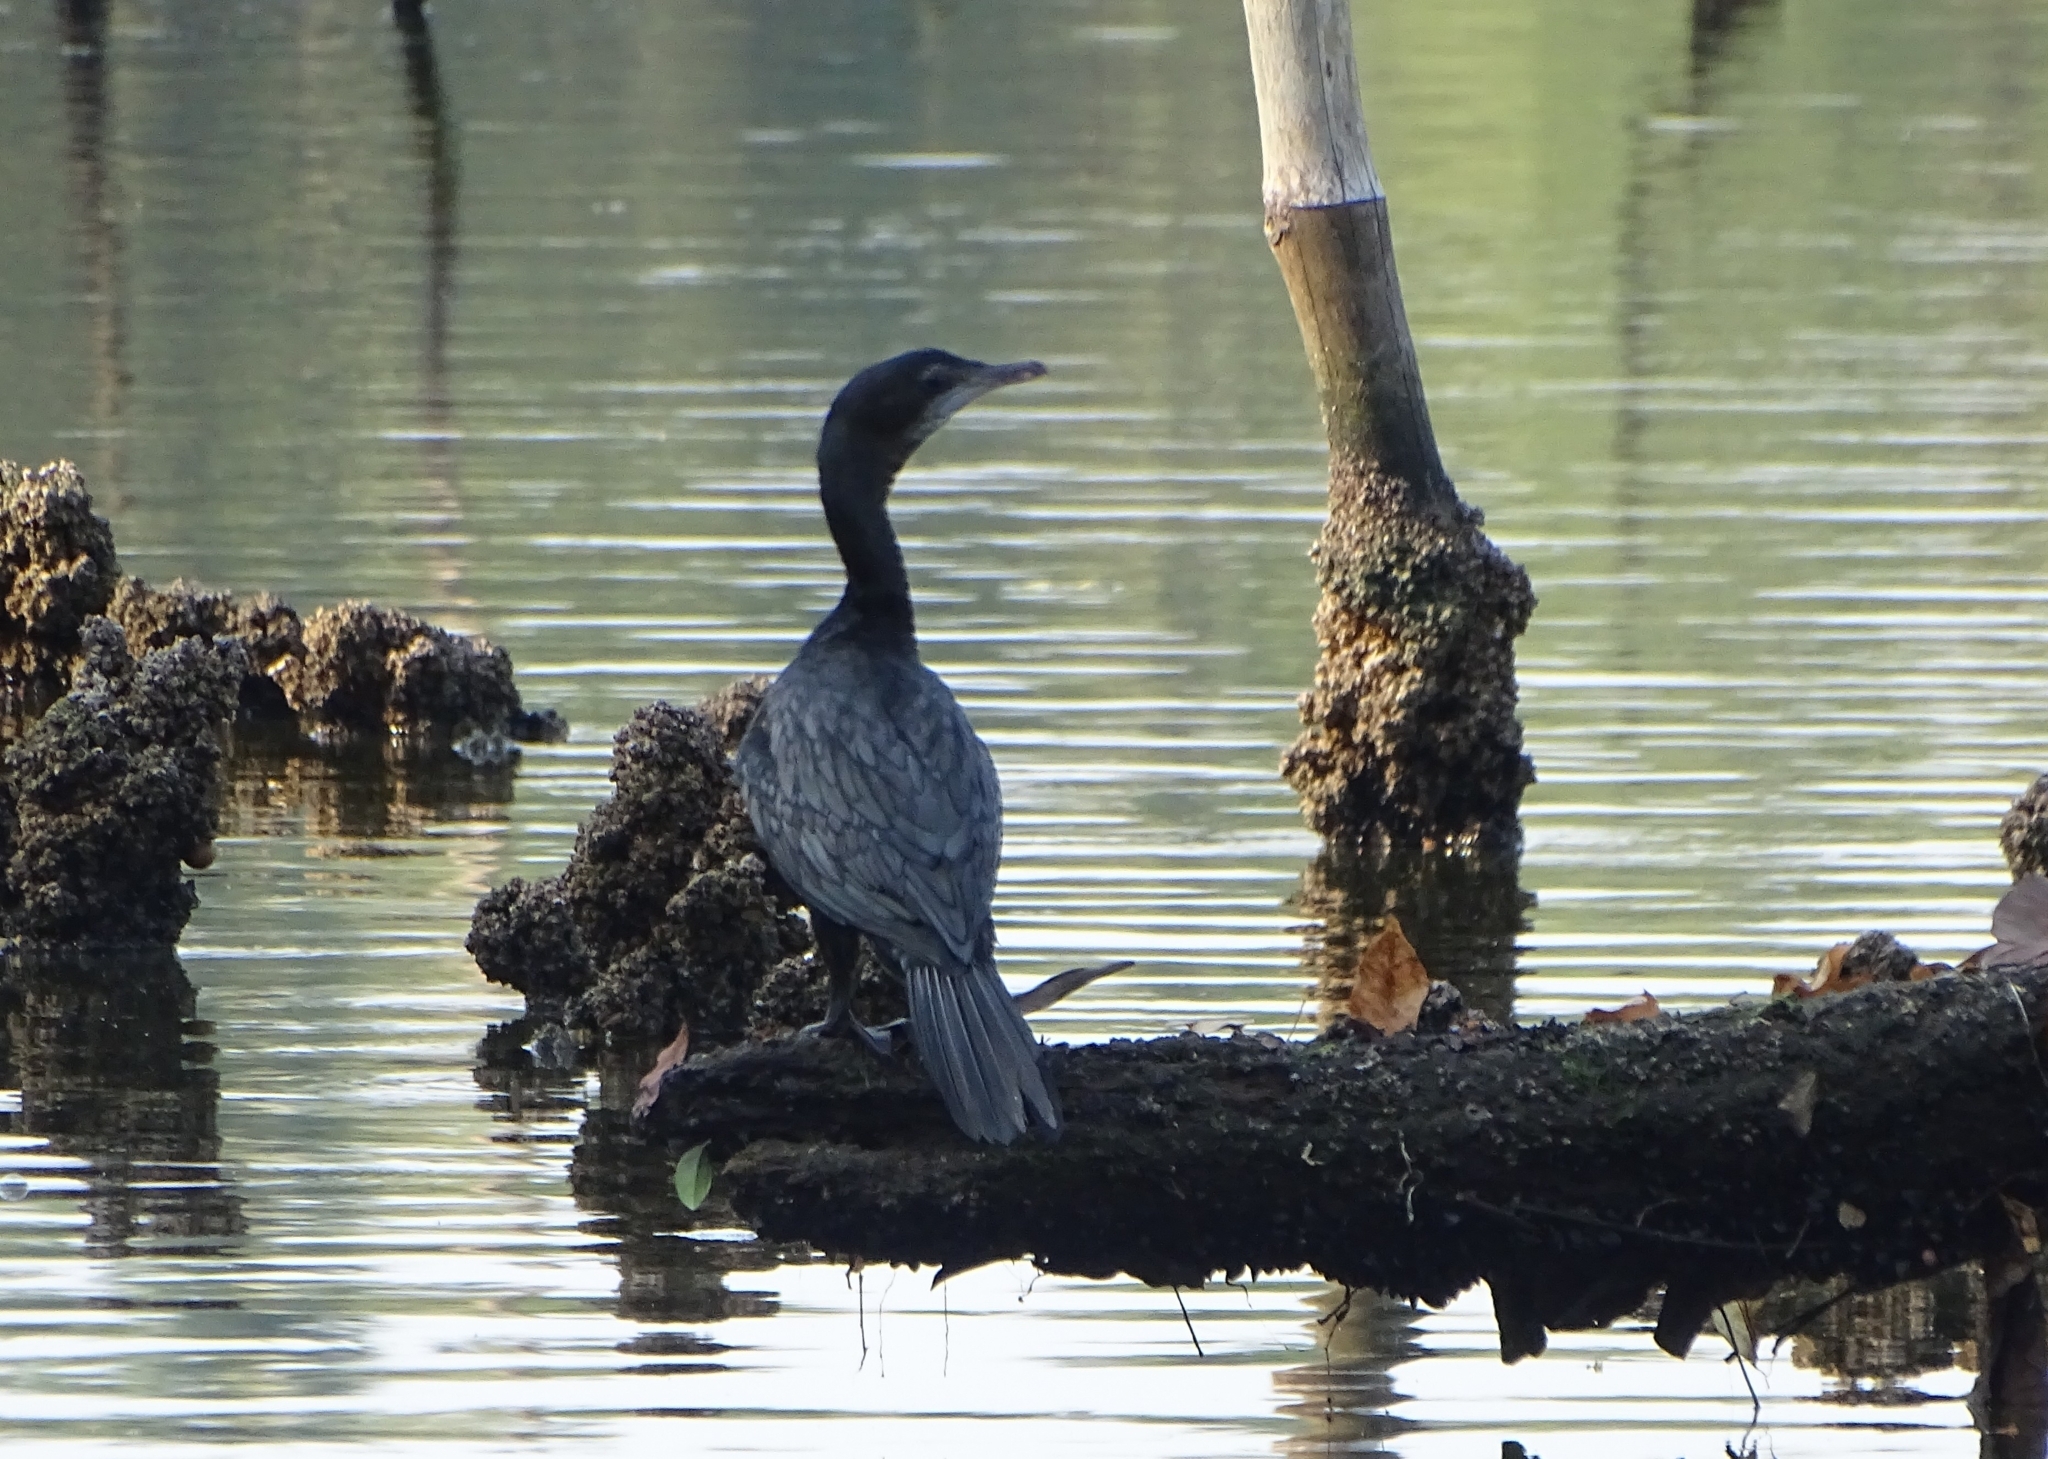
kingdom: Animalia
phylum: Chordata
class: Aves
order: Suliformes
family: Phalacrocoracidae
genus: Microcarbo
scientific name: Microcarbo niger
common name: Little cormorant
